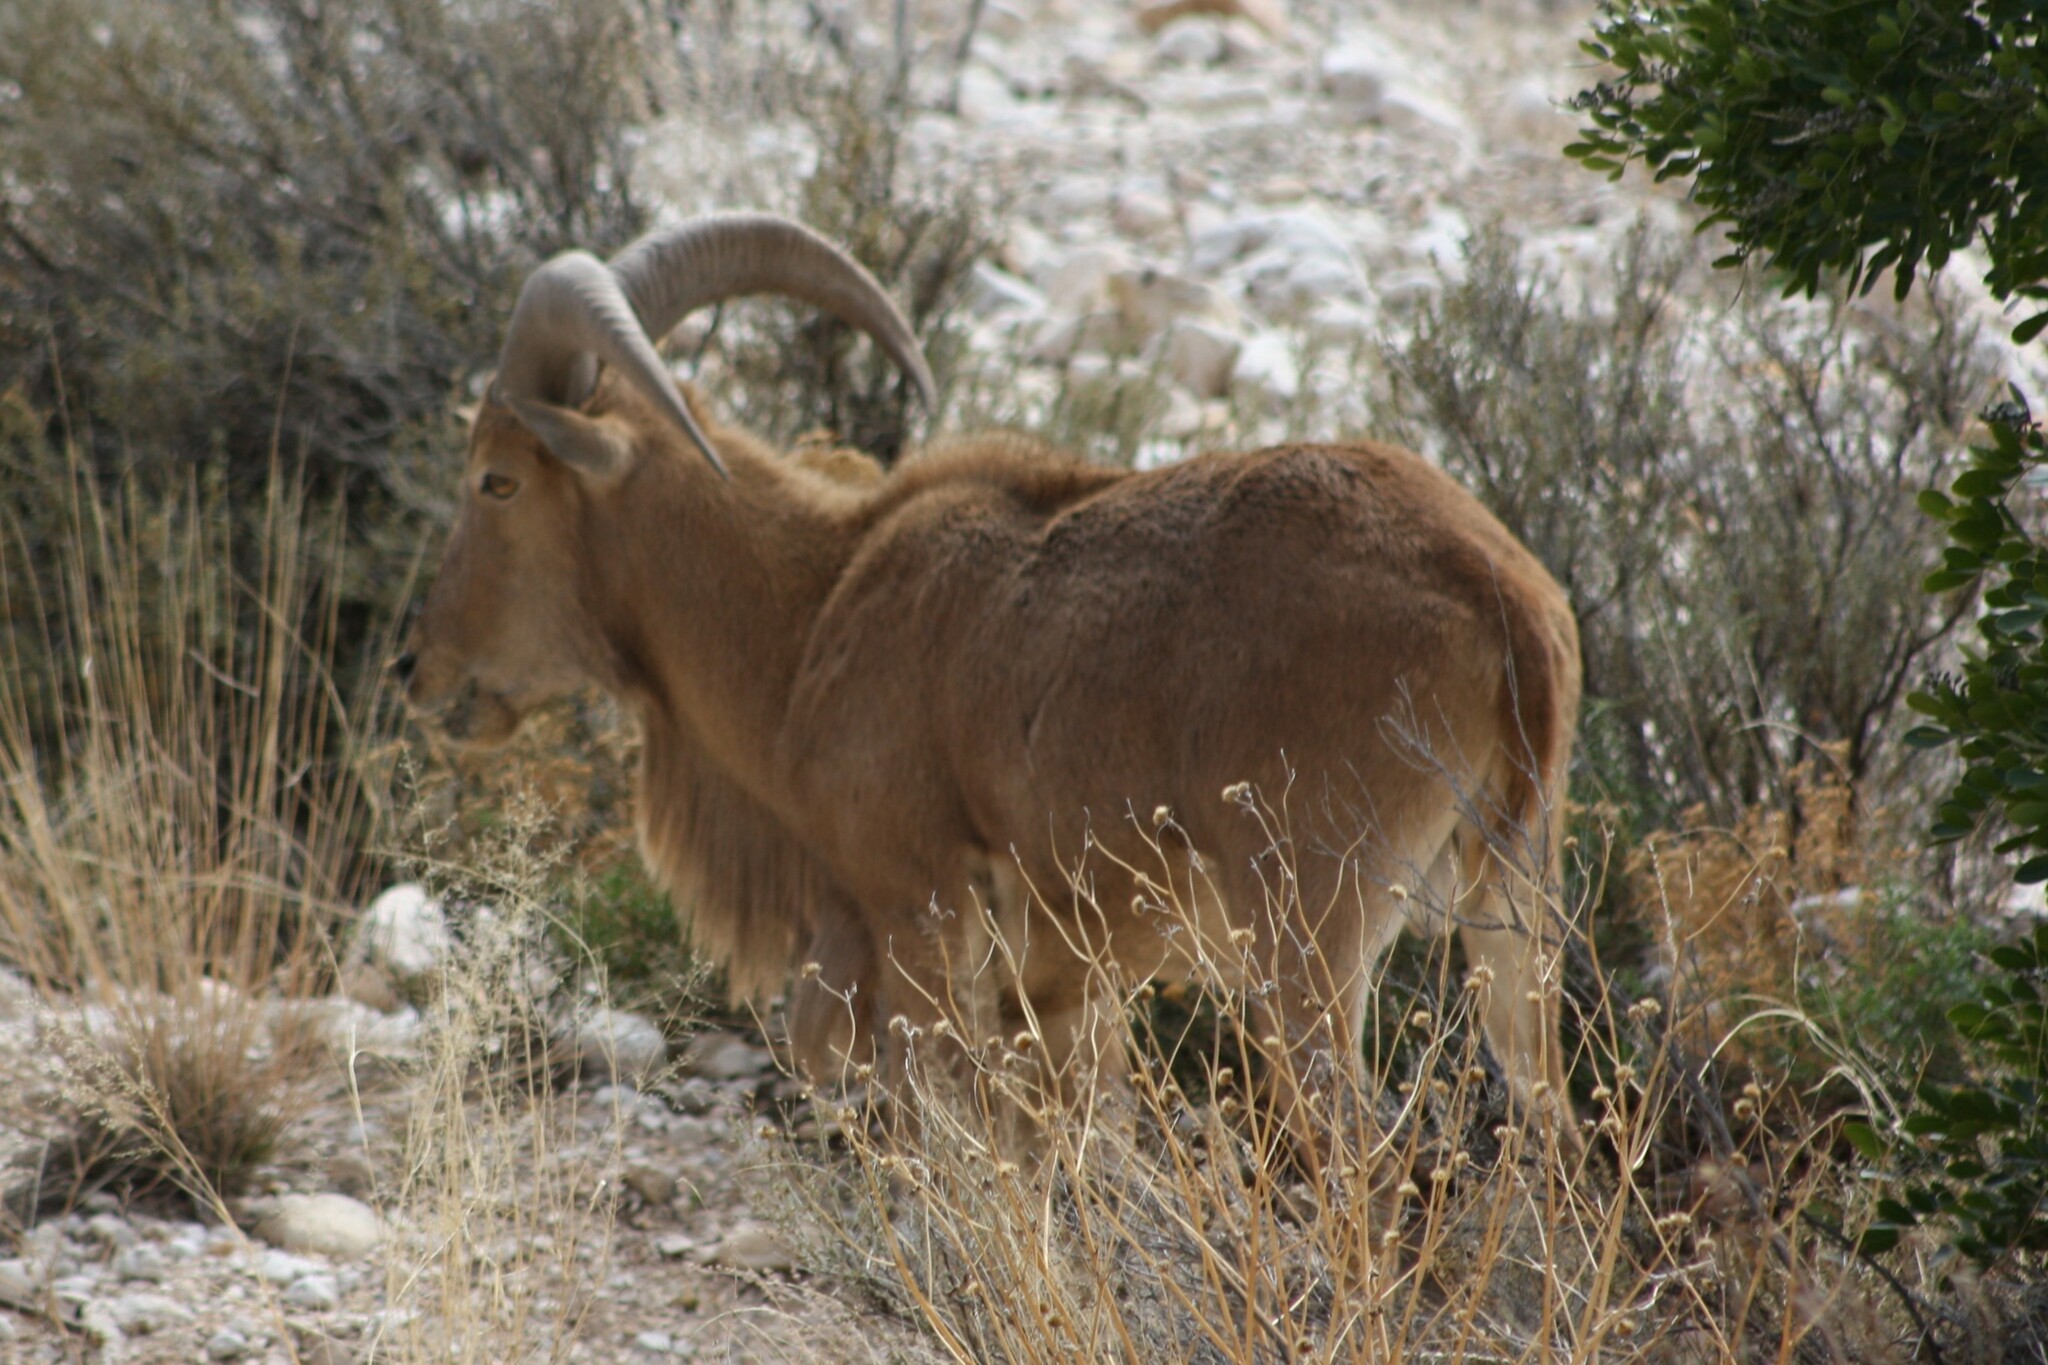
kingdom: Animalia
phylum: Chordata
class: Mammalia
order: Artiodactyla
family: Bovidae
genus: Ammotragus
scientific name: Ammotragus lervia
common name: Barbary sheep
